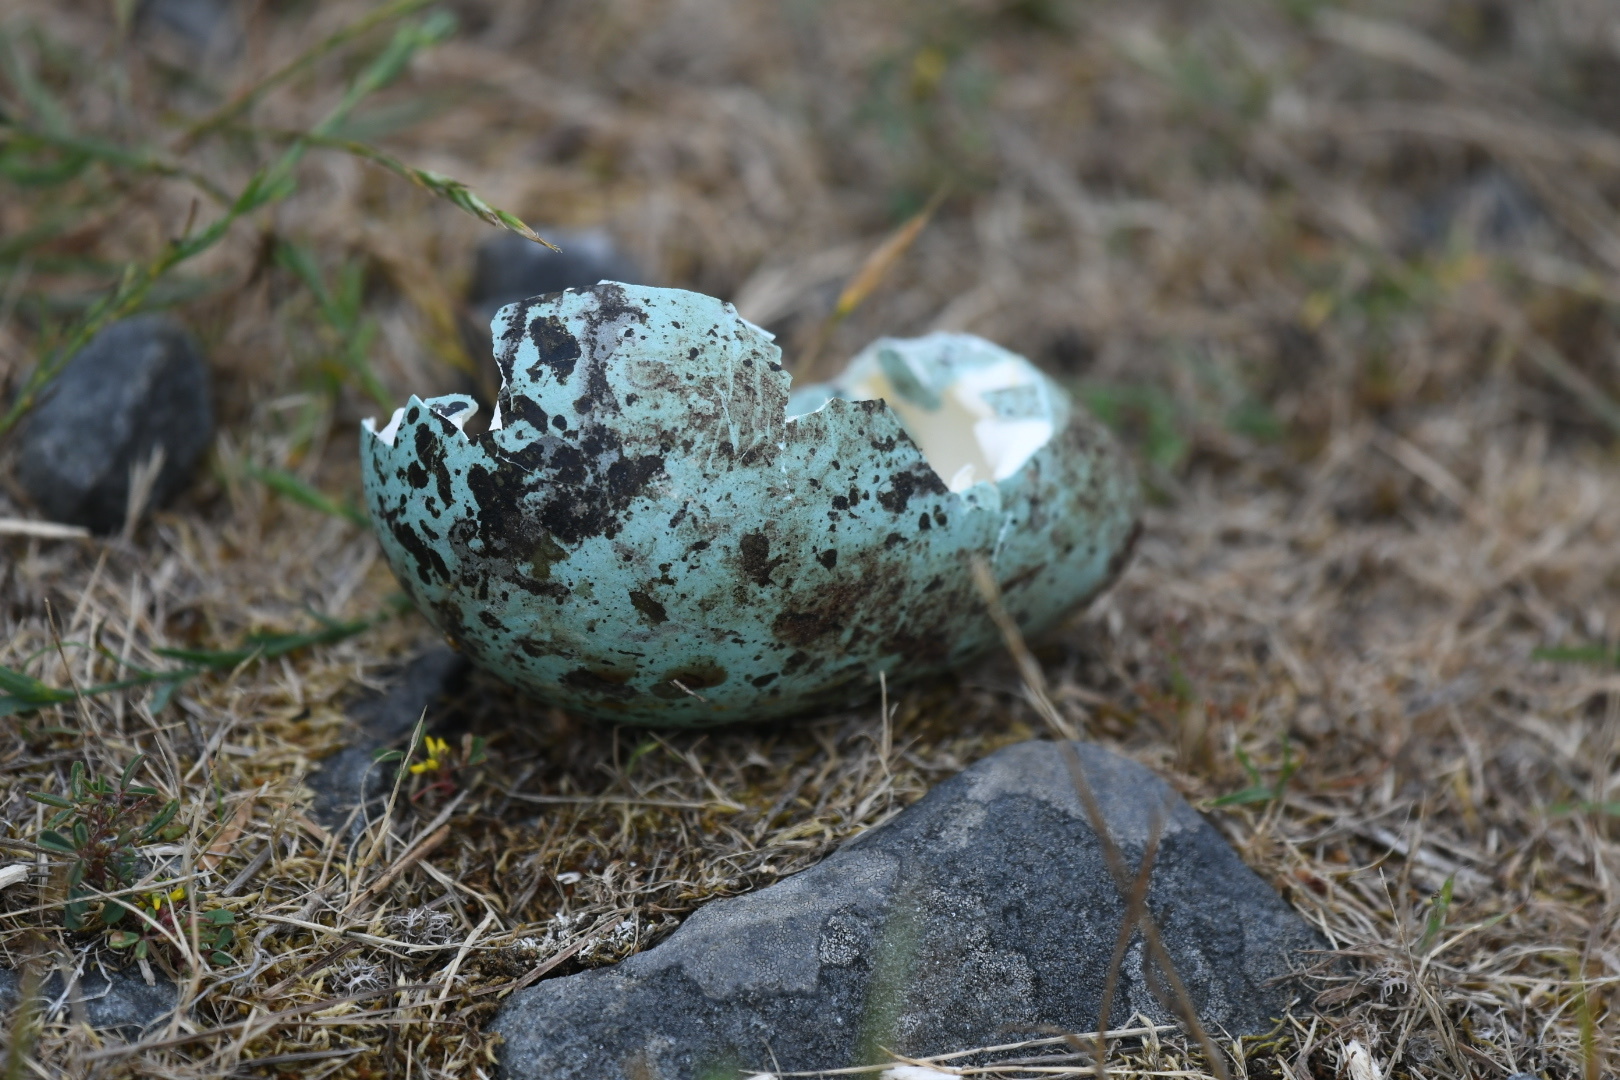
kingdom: Animalia
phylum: Chordata
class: Aves
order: Charadriiformes
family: Alcidae
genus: Uria
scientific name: Uria aalge
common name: Common murre
